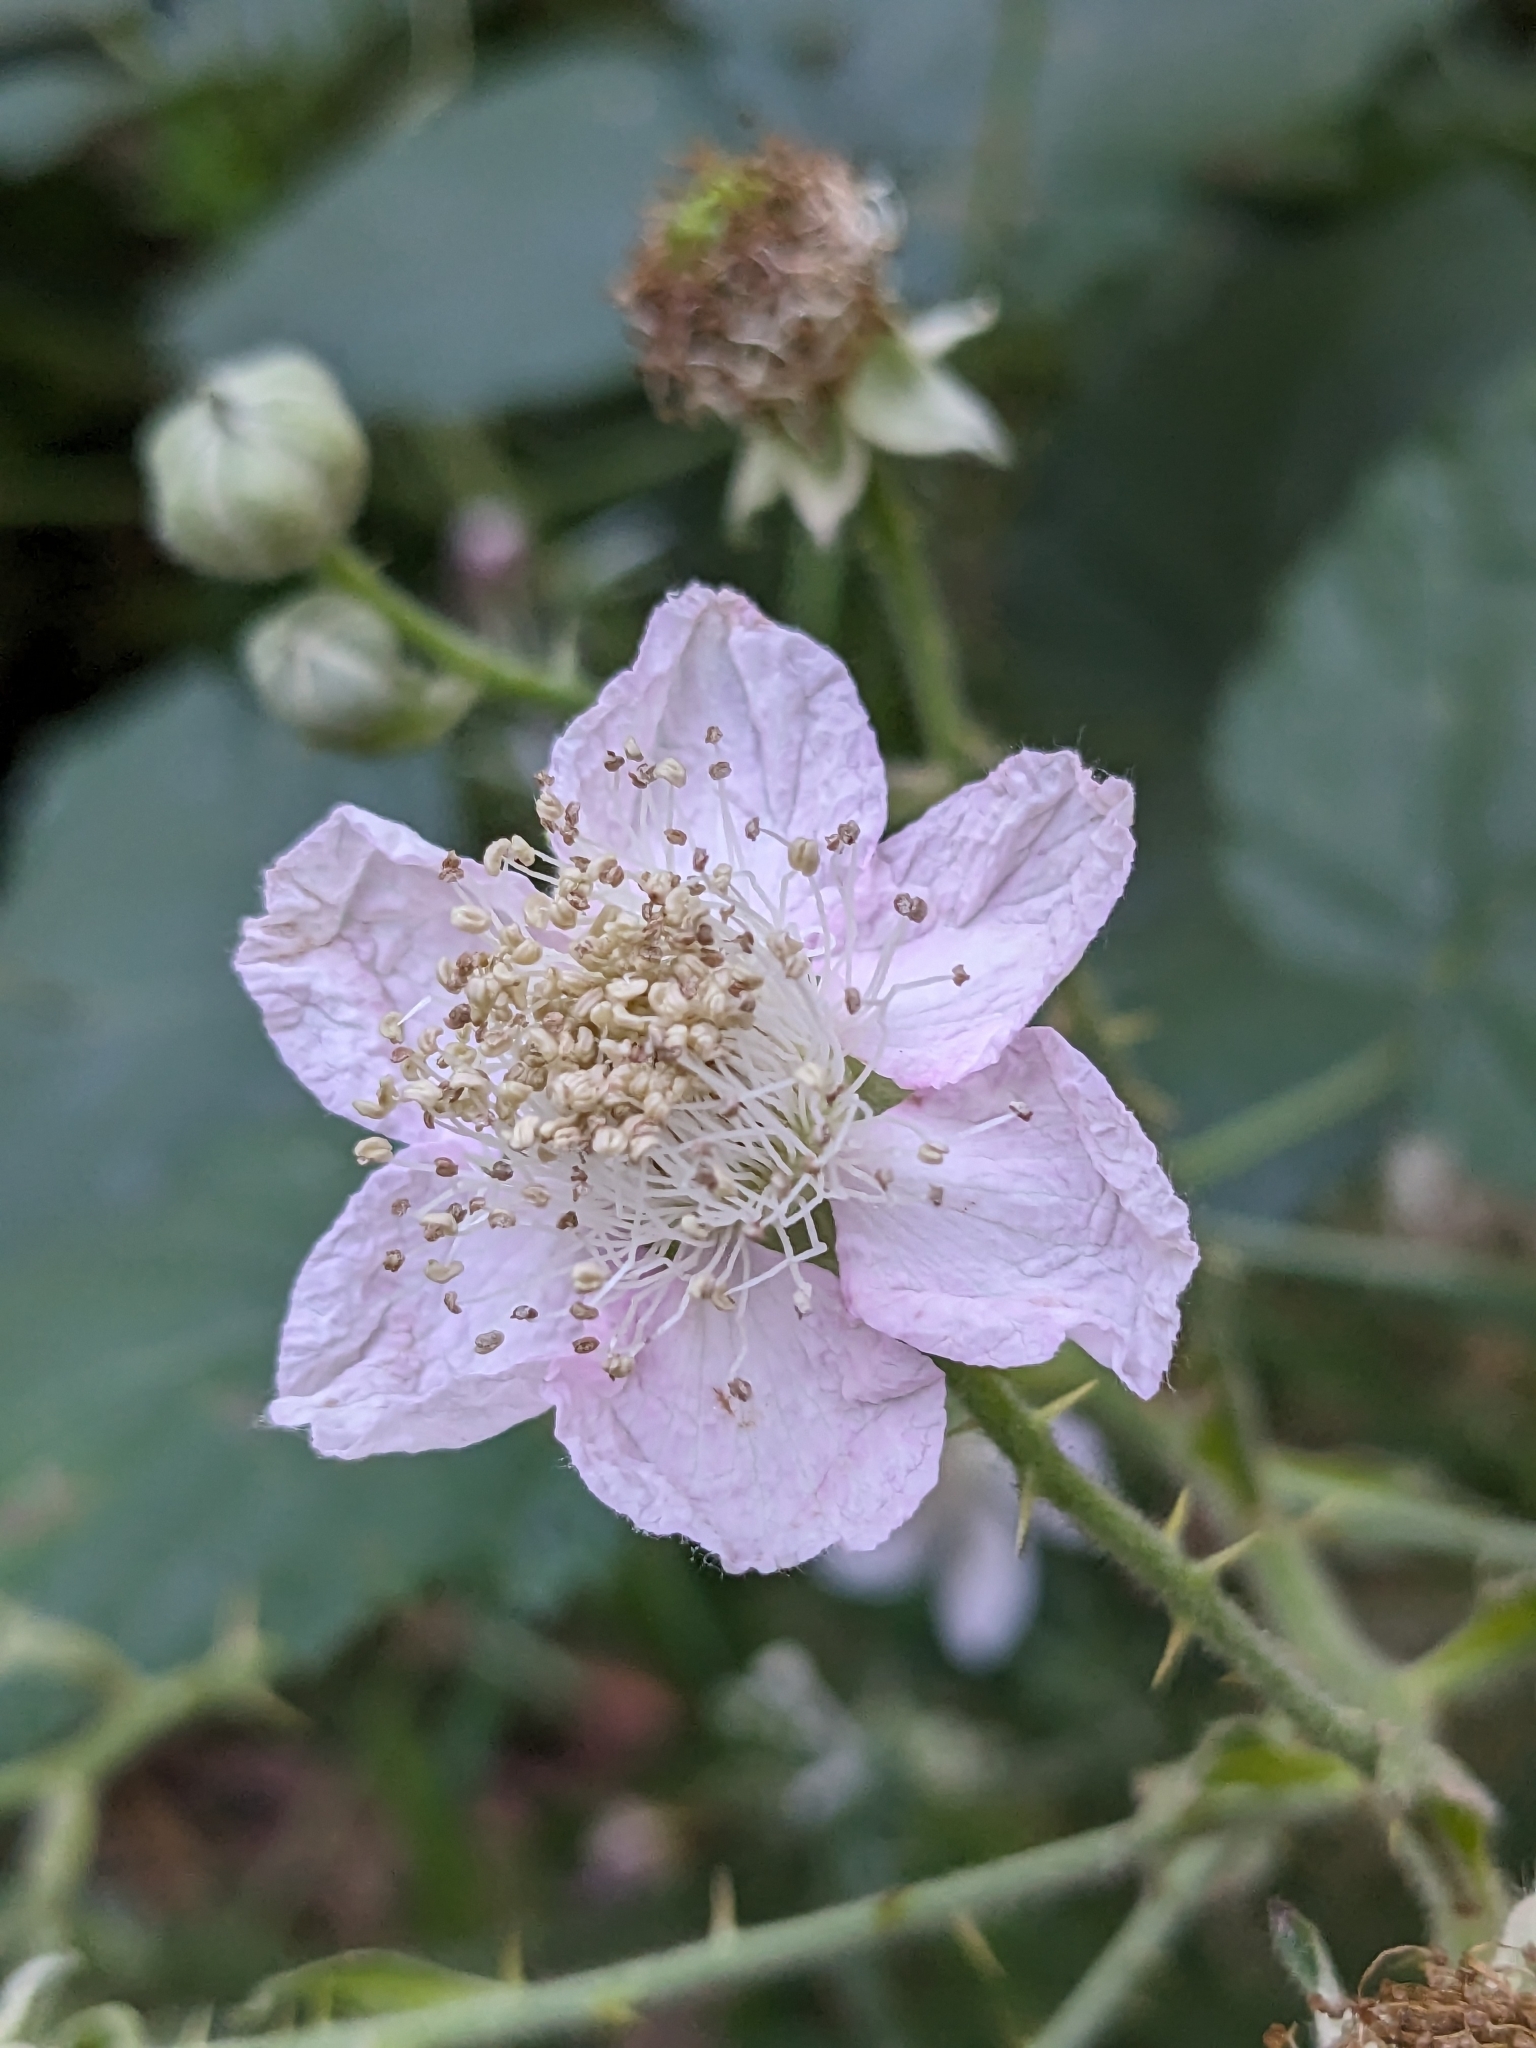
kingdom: Plantae
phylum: Tracheophyta
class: Magnoliopsida
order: Rosales
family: Rosaceae
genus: Rubus
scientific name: Rubus armeniacus
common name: Himalayan blackberry
